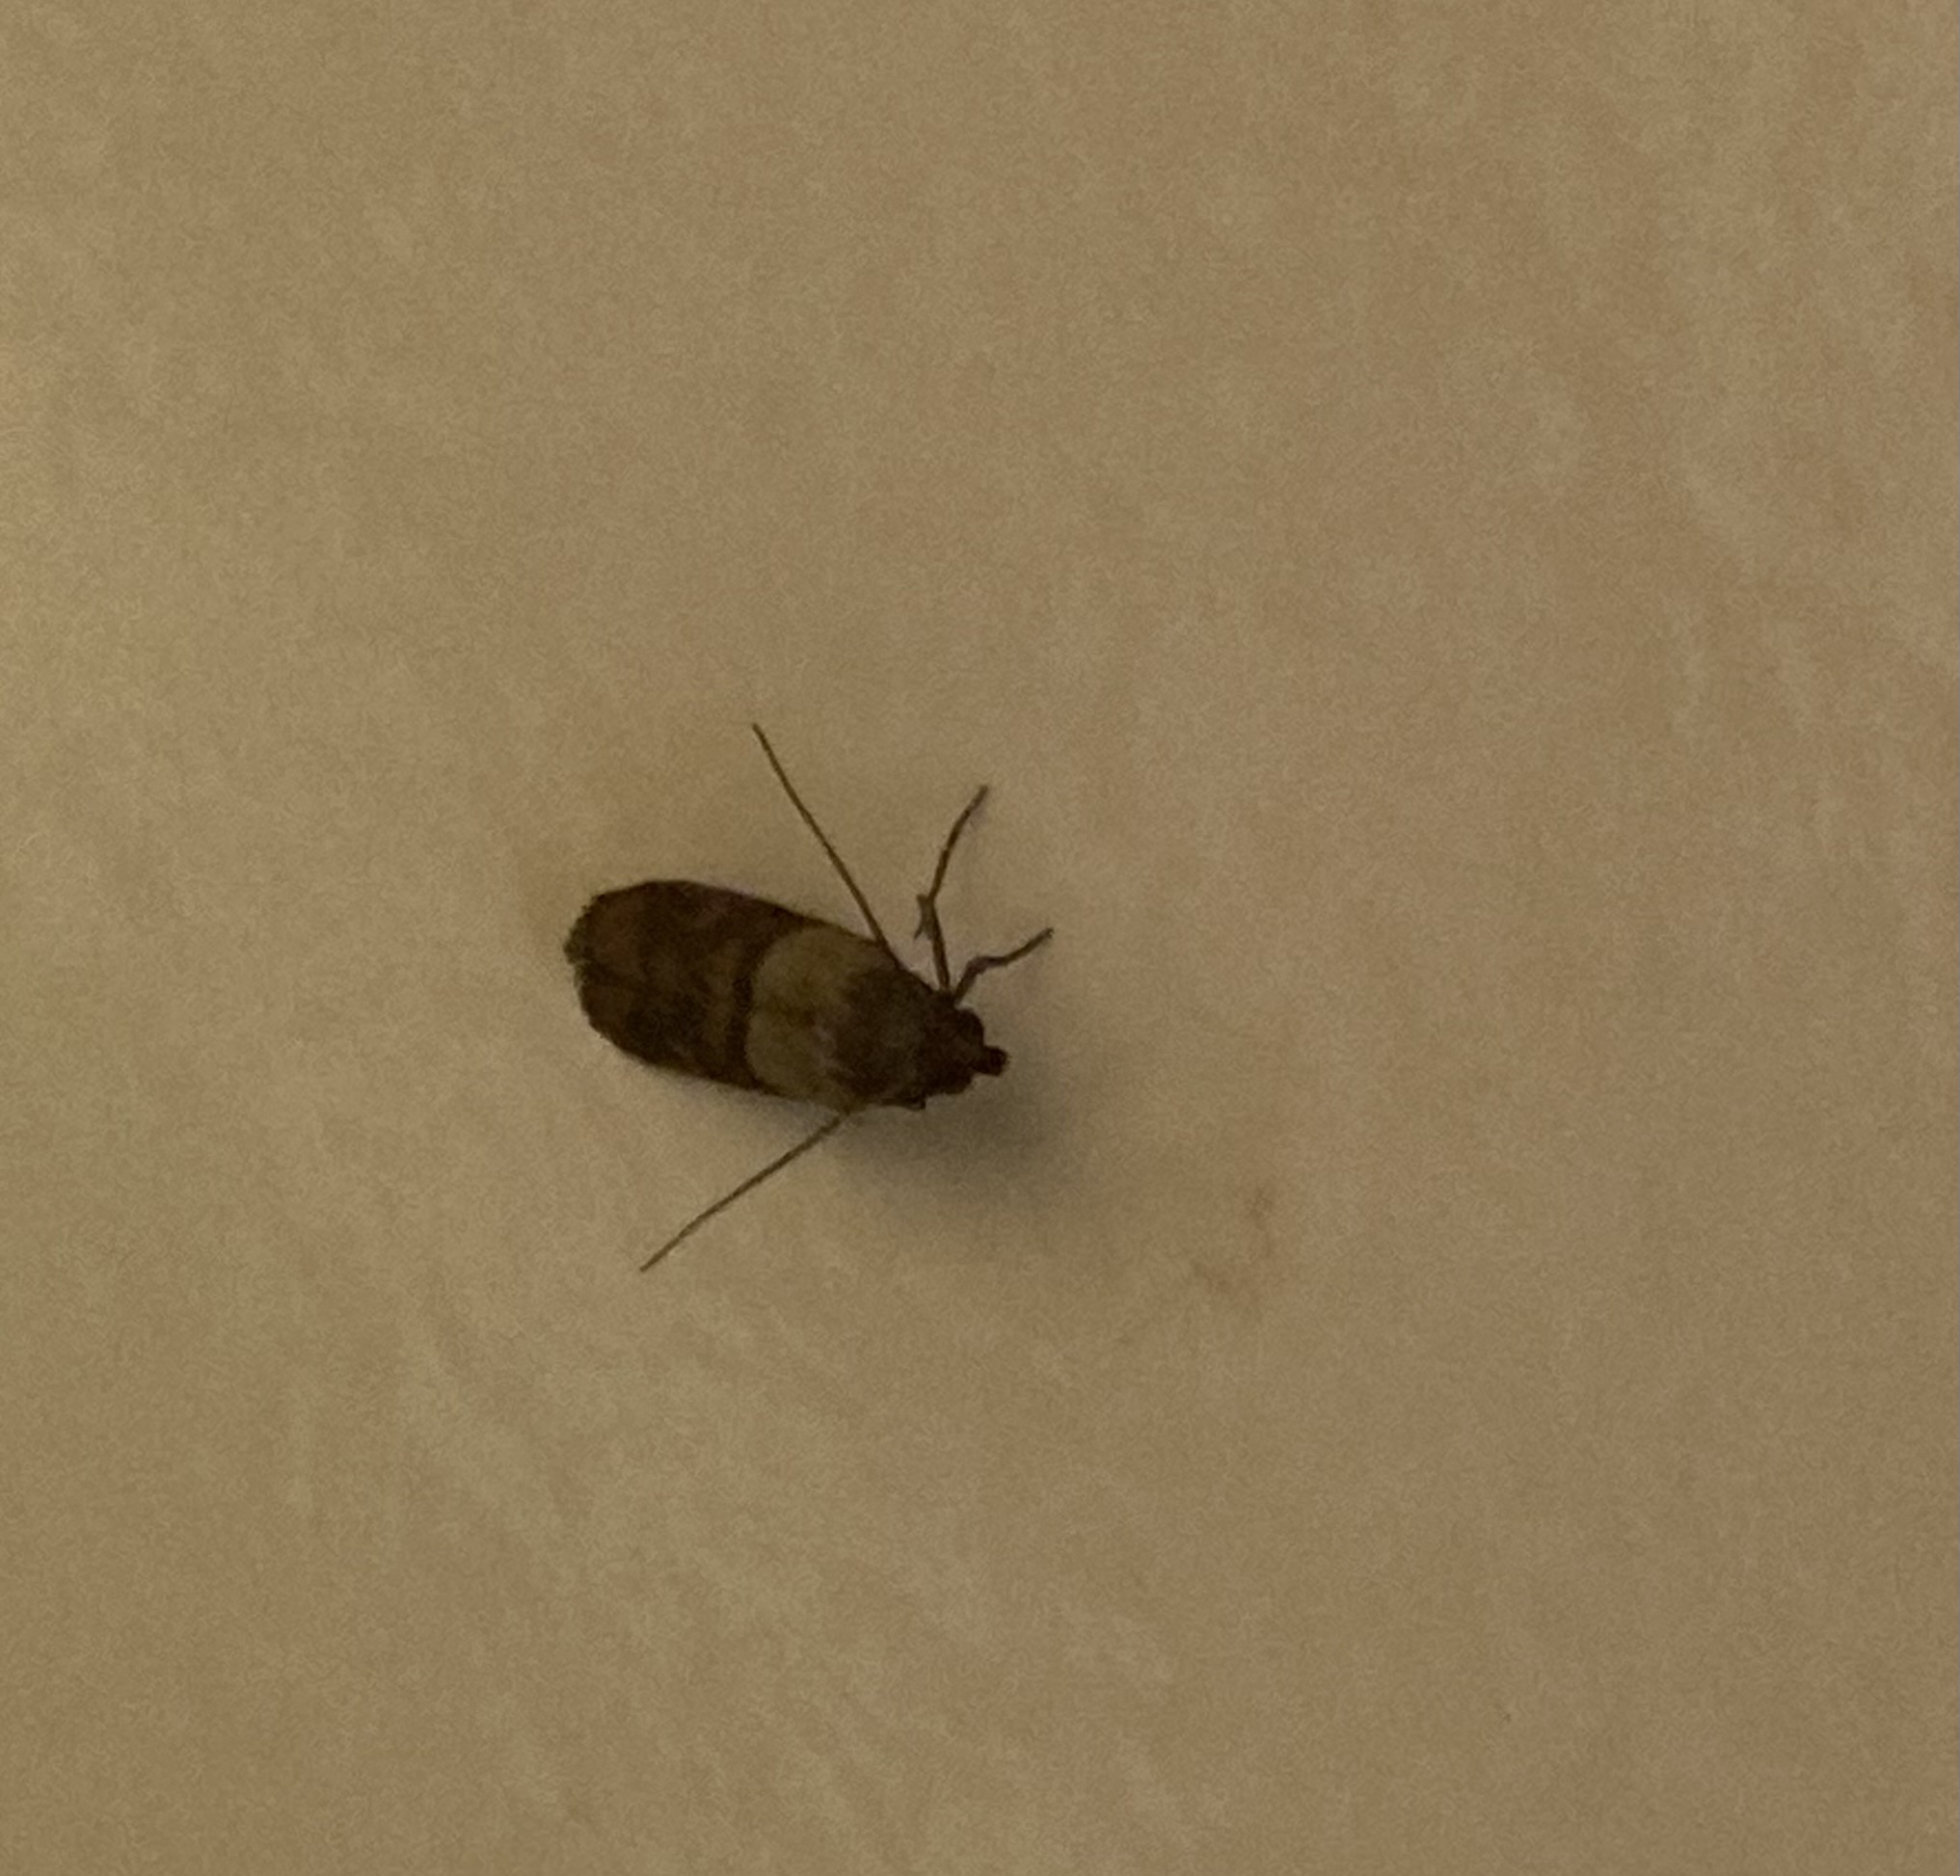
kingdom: Animalia
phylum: Arthropoda
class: Insecta
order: Lepidoptera
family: Pyralidae
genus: Plodia
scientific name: Plodia interpunctella
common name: Indian meal moth
